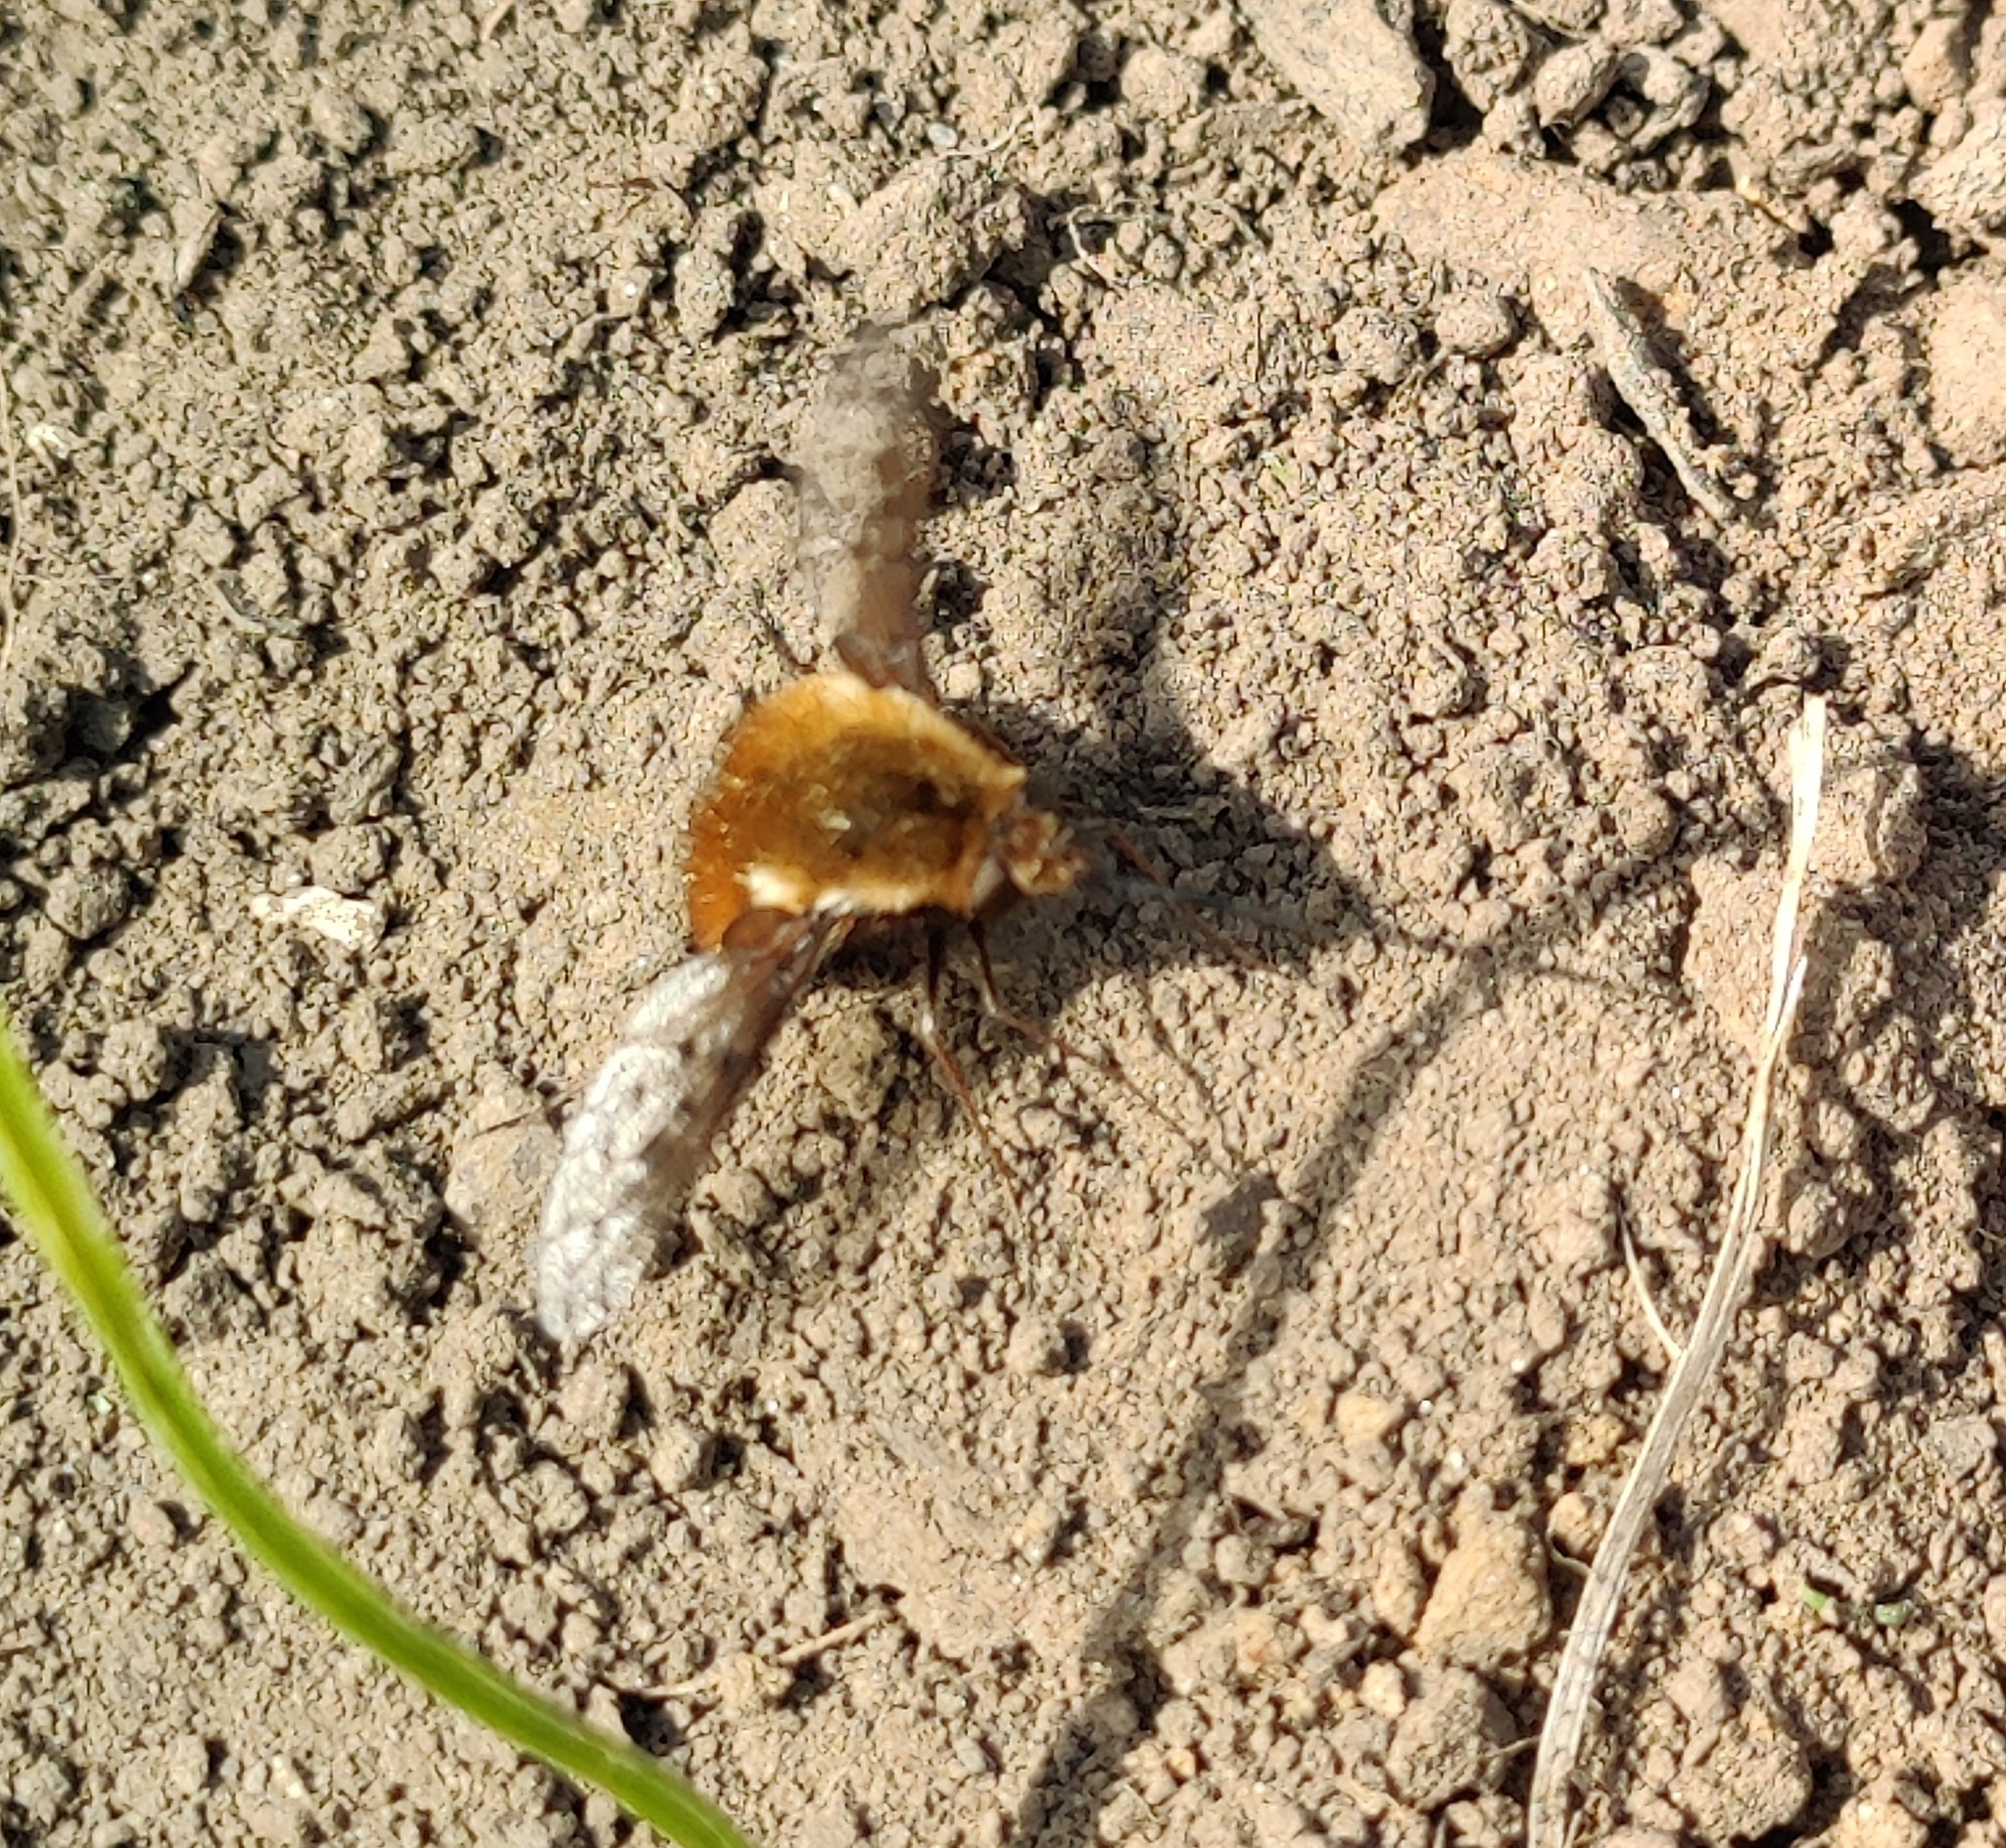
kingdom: Animalia
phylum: Arthropoda
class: Insecta
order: Diptera
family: Bombyliidae
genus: Bombylius
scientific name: Bombylius discolor
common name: Dotted bee-fly
